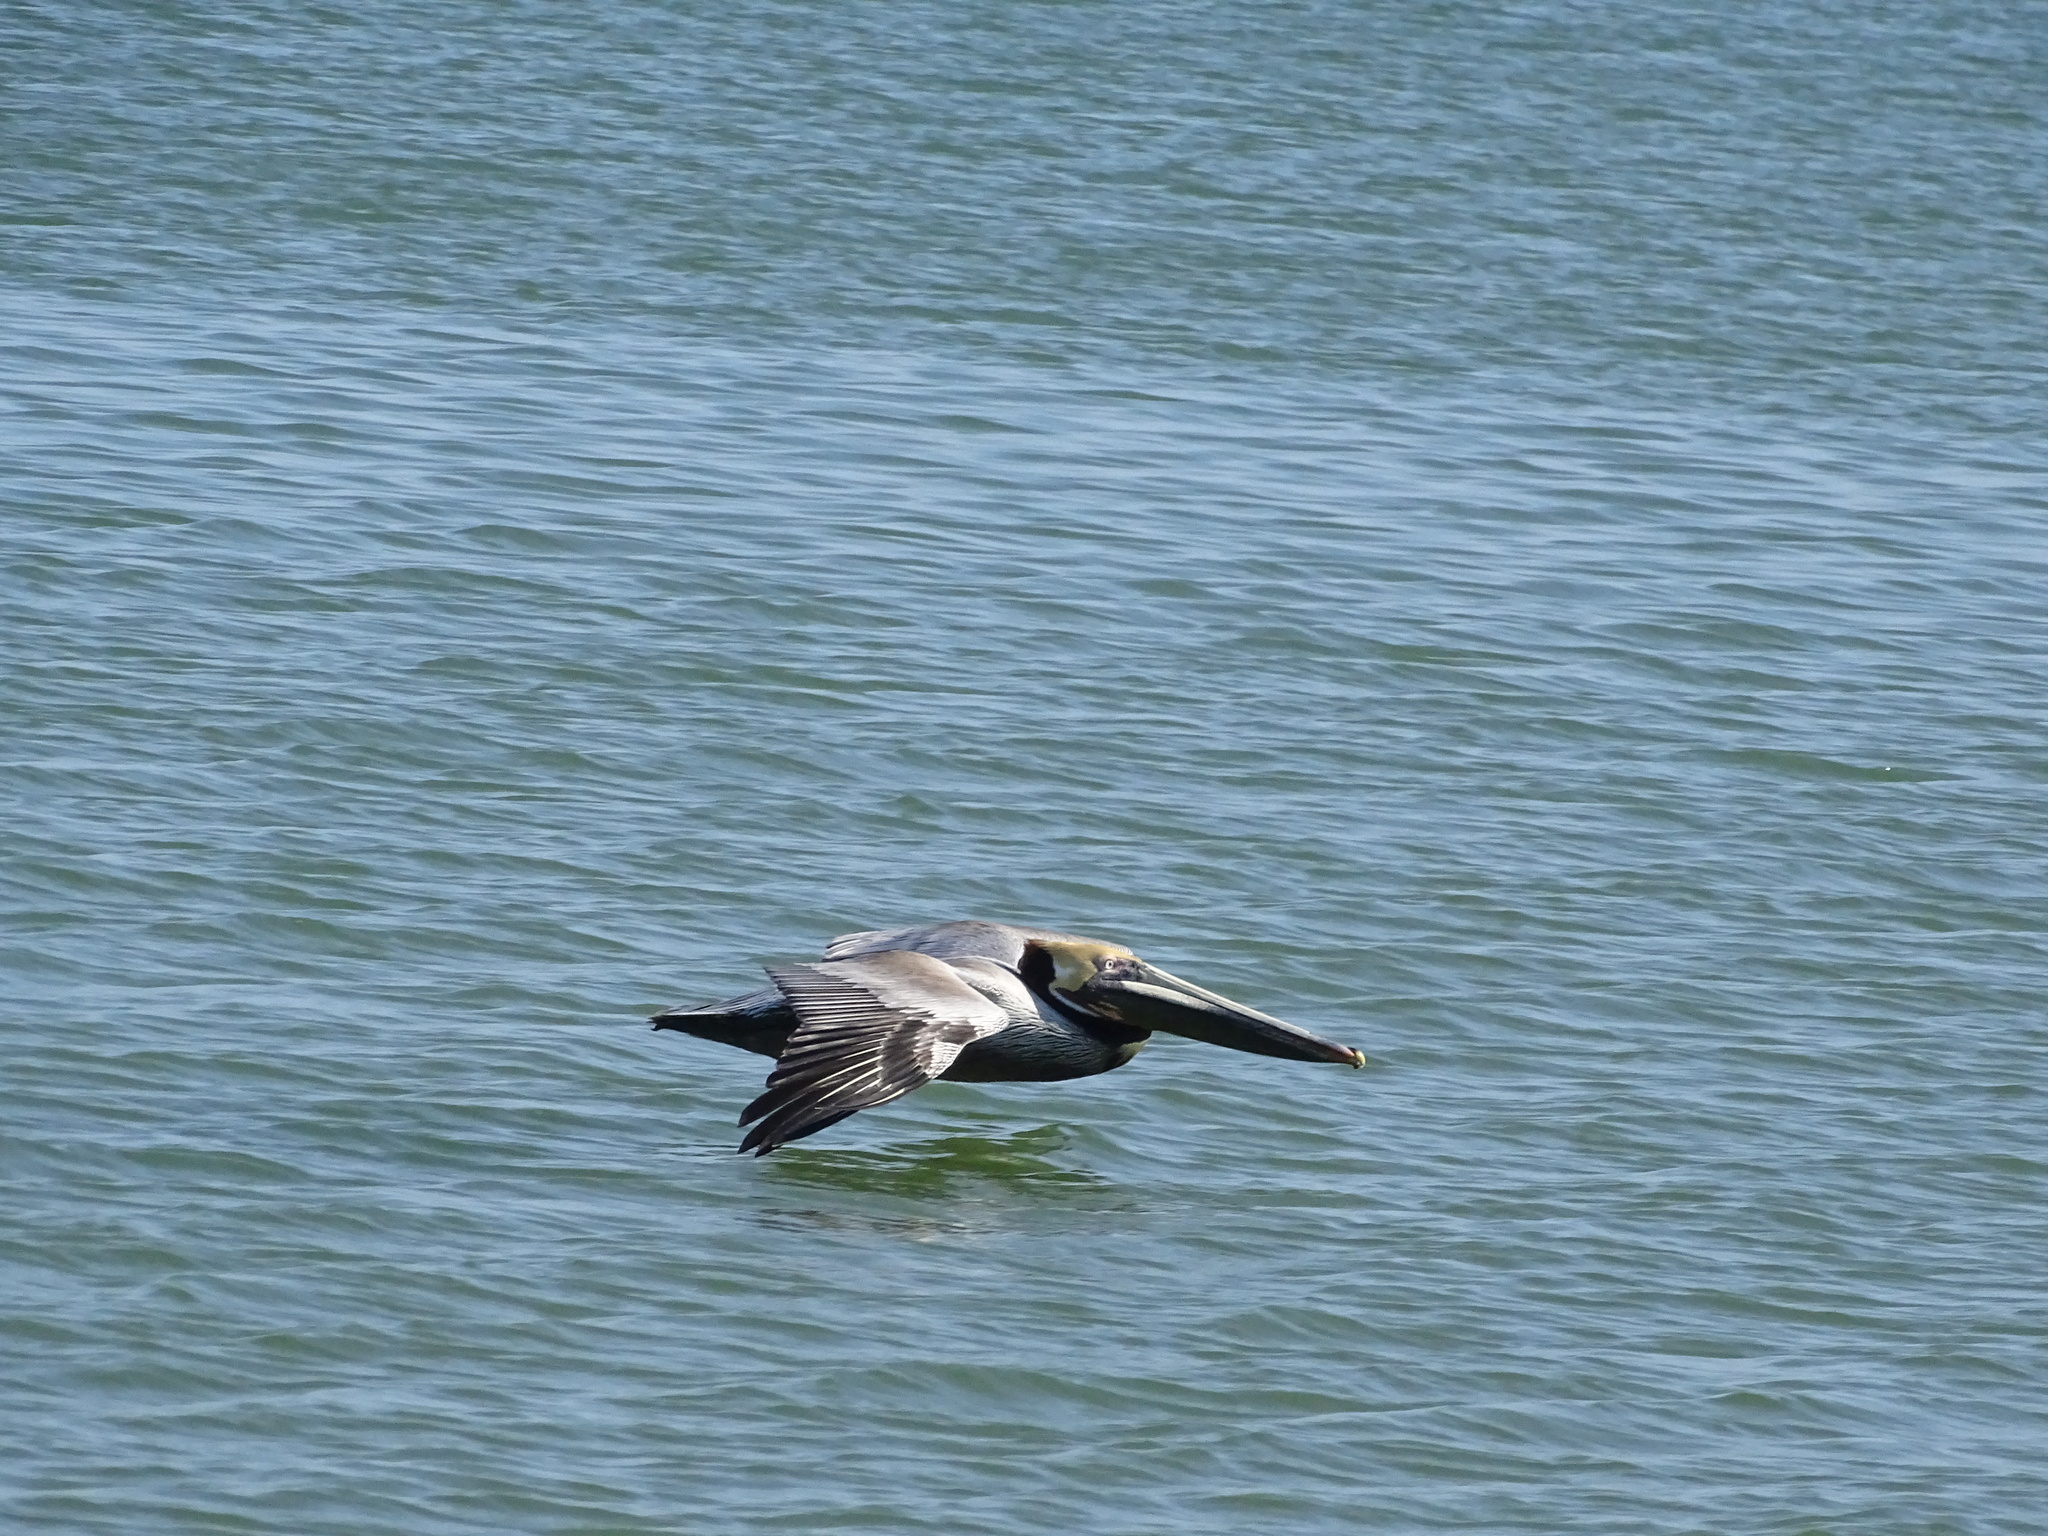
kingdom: Animalia
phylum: Chordata
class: Aves
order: Pelecaniformes
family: Pelecanidae
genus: Pelecanus
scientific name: Pelecanus occidentalis
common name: Brown pelican
